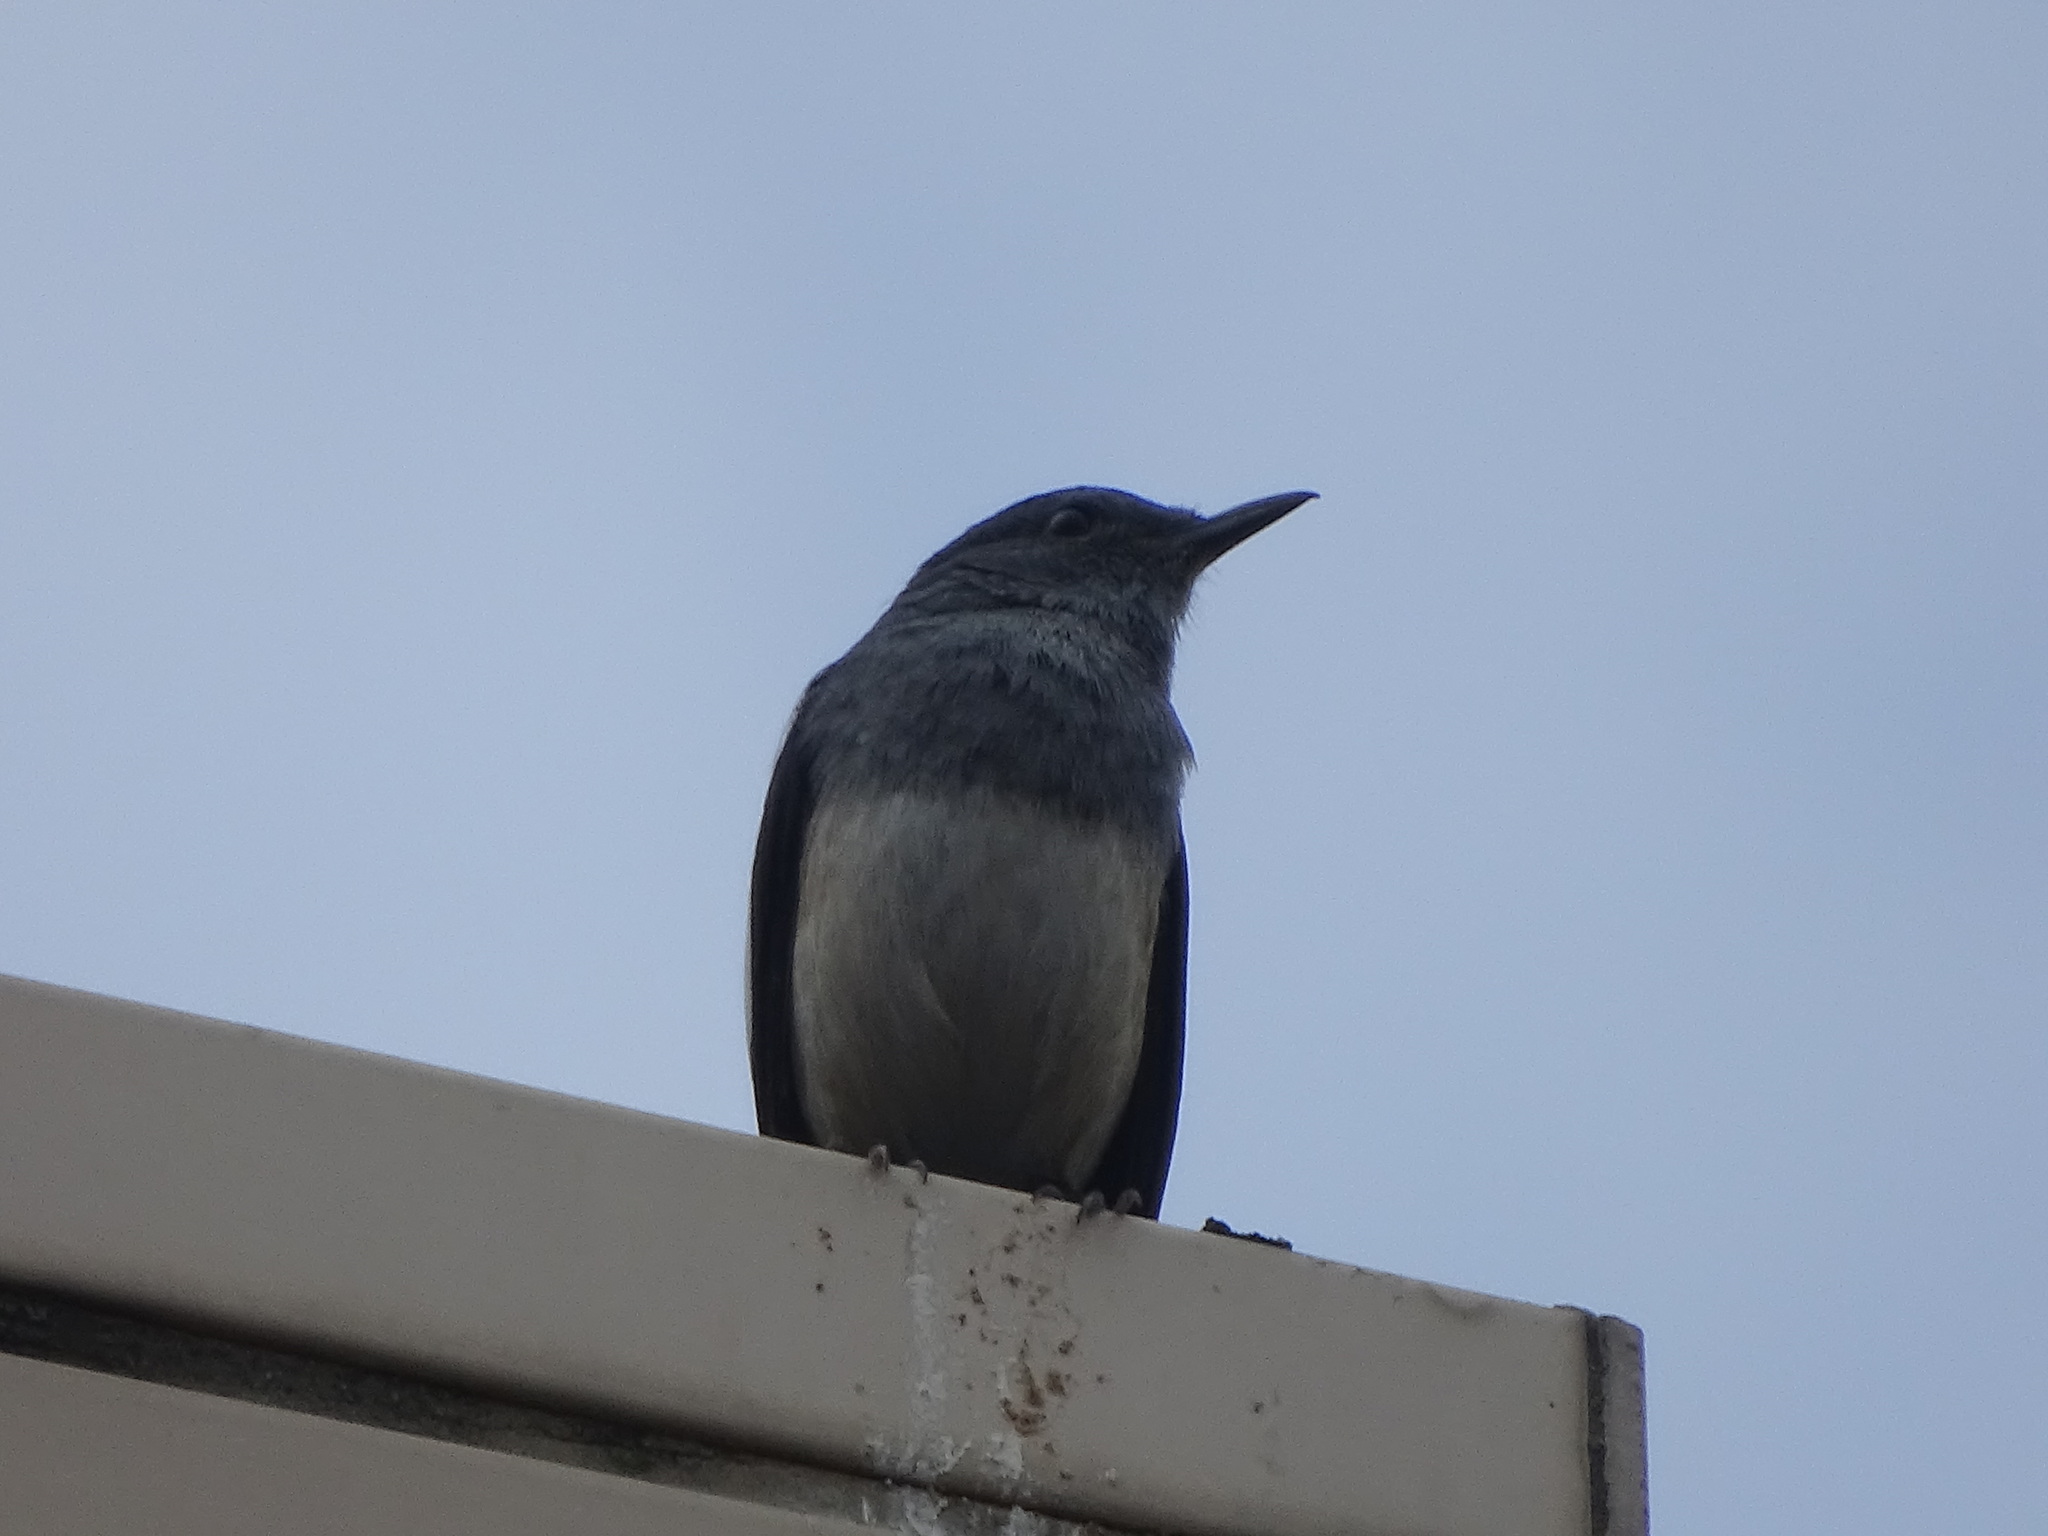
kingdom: Animalia
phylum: Chordata
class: Aves
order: Passeriformes
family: Muscicapidae
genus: Copsychus
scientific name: Copsychus saularis
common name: Oriental magpie-robin
